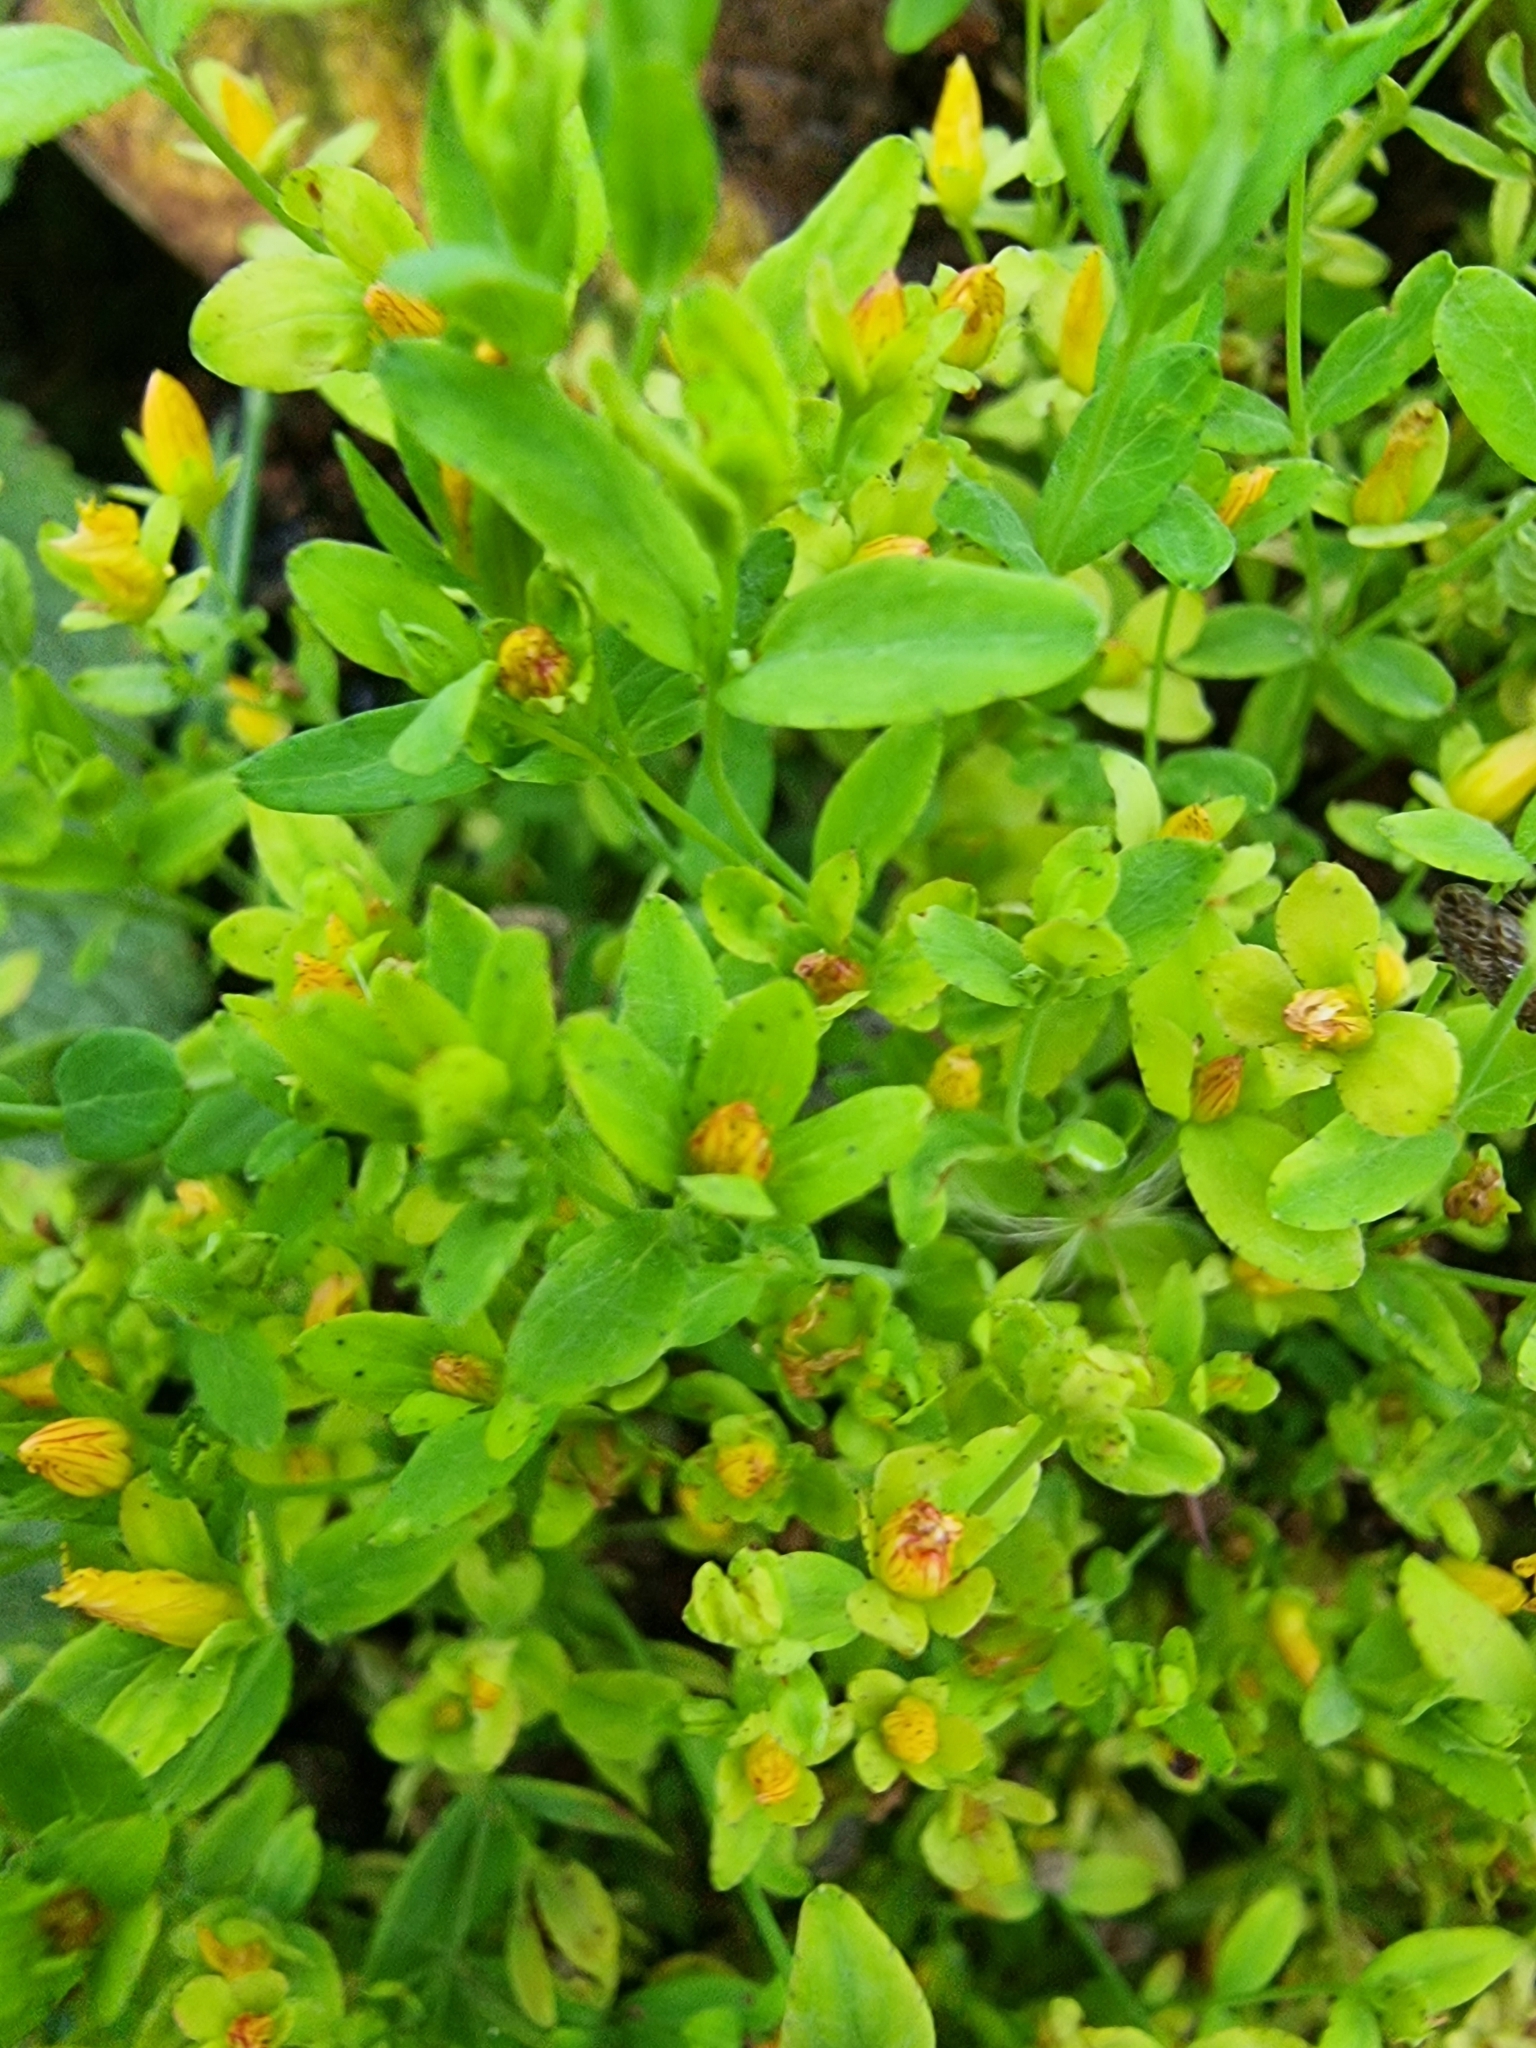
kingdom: Plantae
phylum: Tracheophyta
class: Magnoliopsida
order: Malpighiales
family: Hypericaceae
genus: Hypericum
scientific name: Hypericum humifusum
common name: Trailing st. john's-wort
